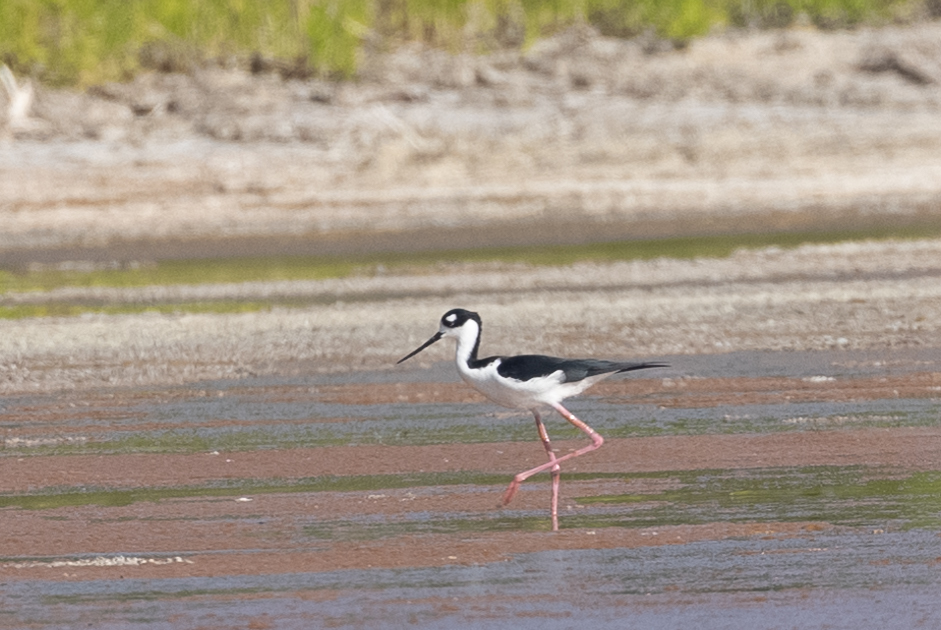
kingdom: Animalia
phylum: Chordata
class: Aves
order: Charadriiformes
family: Recurvirostridae
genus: Himantopus
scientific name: Himantopus mexicanus
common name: Black-necked stilt
